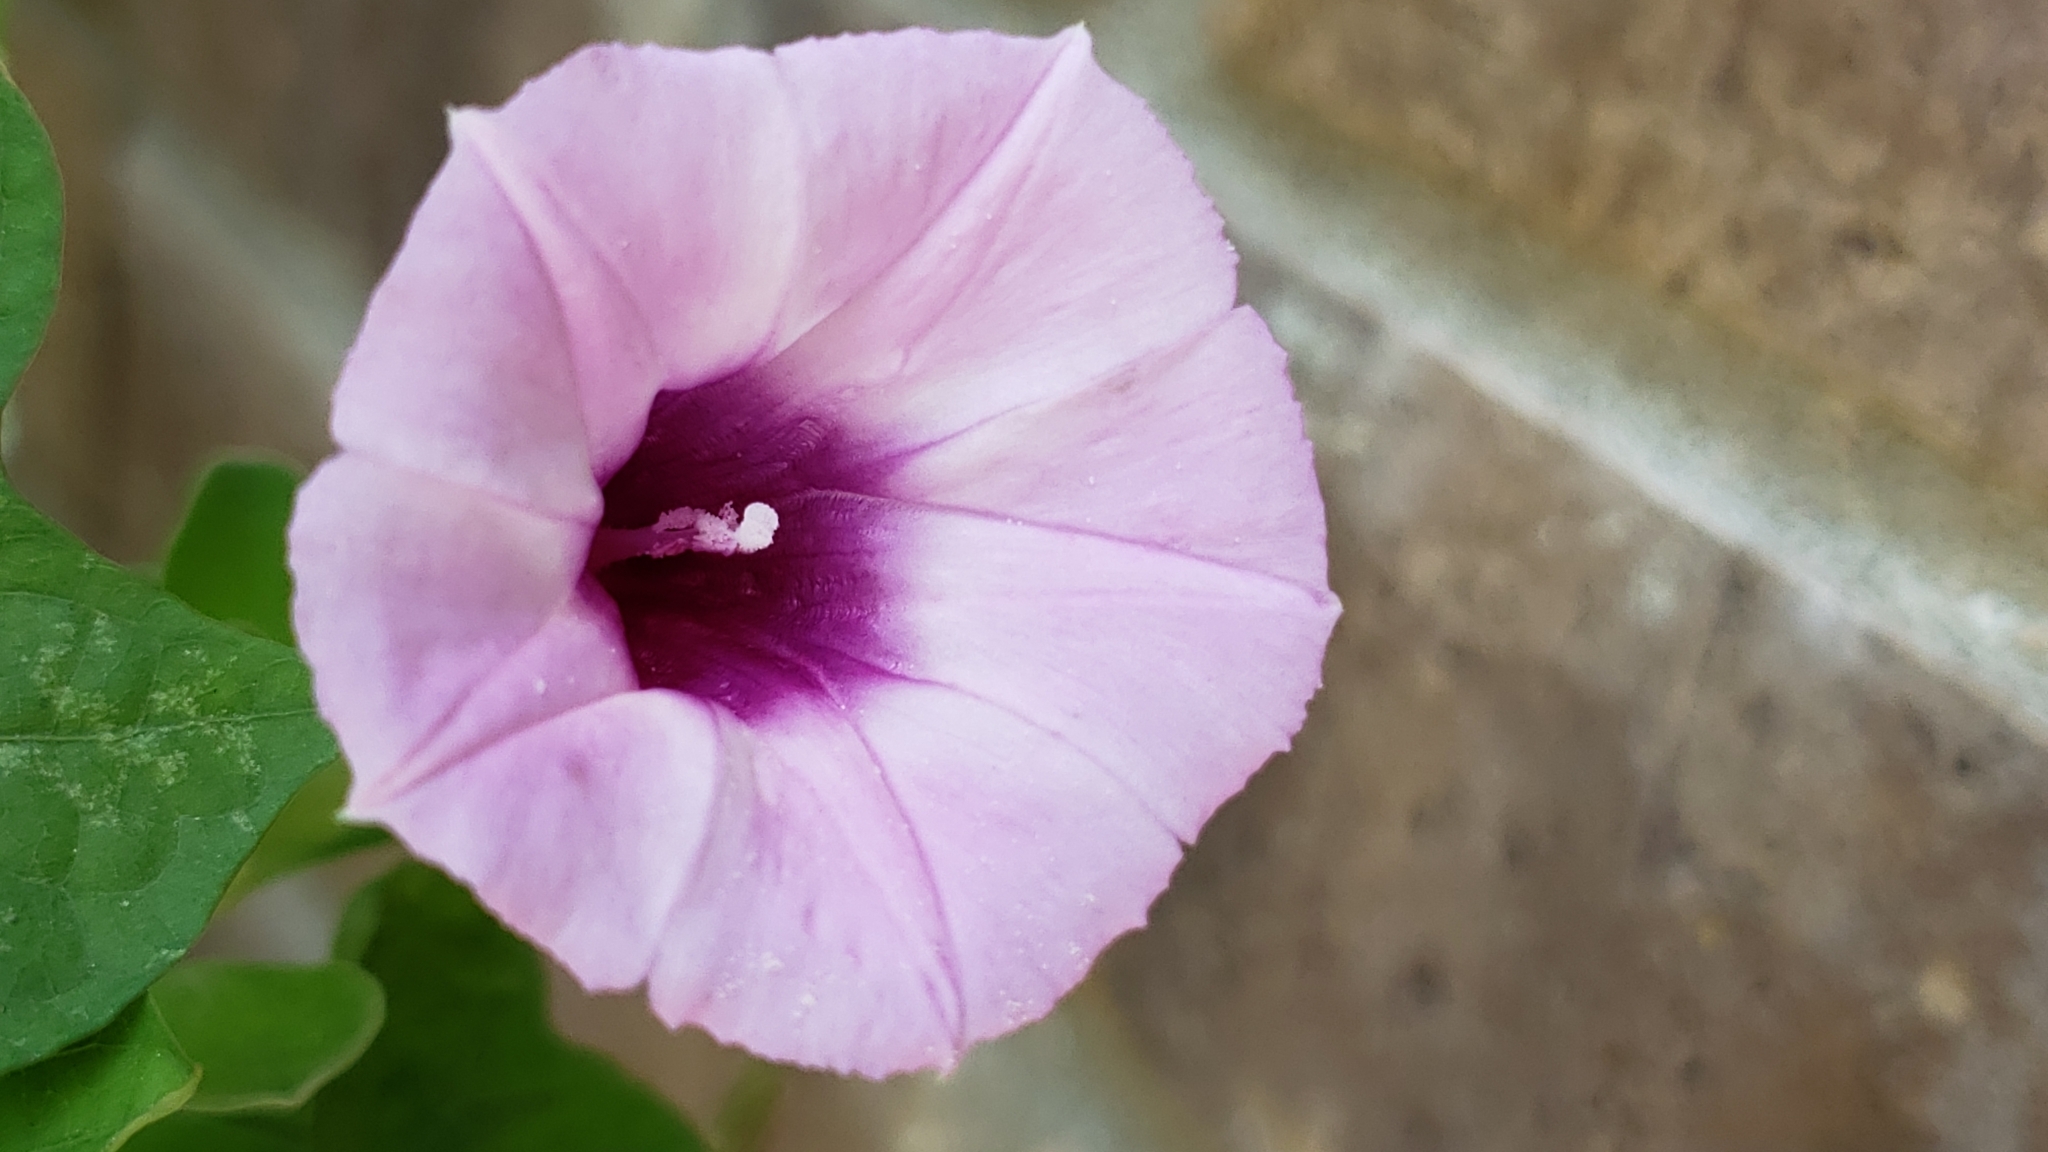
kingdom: Plantae
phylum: Tracheophyta
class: Magnoliopsida
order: Solanales
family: Convolvulaceae
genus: Ipomoea
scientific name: Ipomoea cordatotriloba
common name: Cotton morning glory
